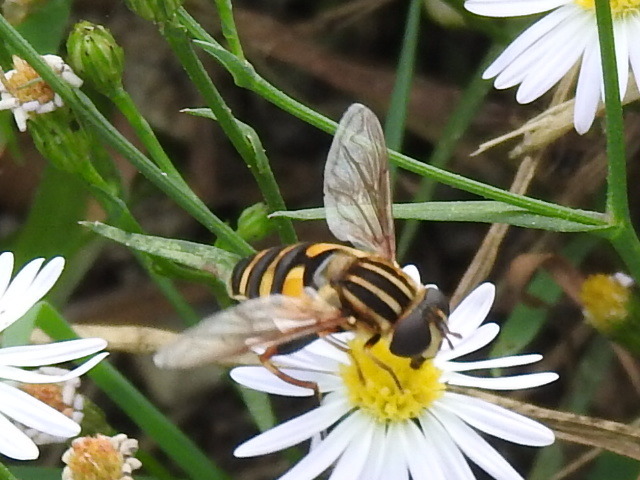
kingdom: Animalia
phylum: Arthropoda
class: Insecta
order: Diptera
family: Syrphidae
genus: Helophilus
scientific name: Helophilus fasciatus
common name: Narrow-headed marsh fly
